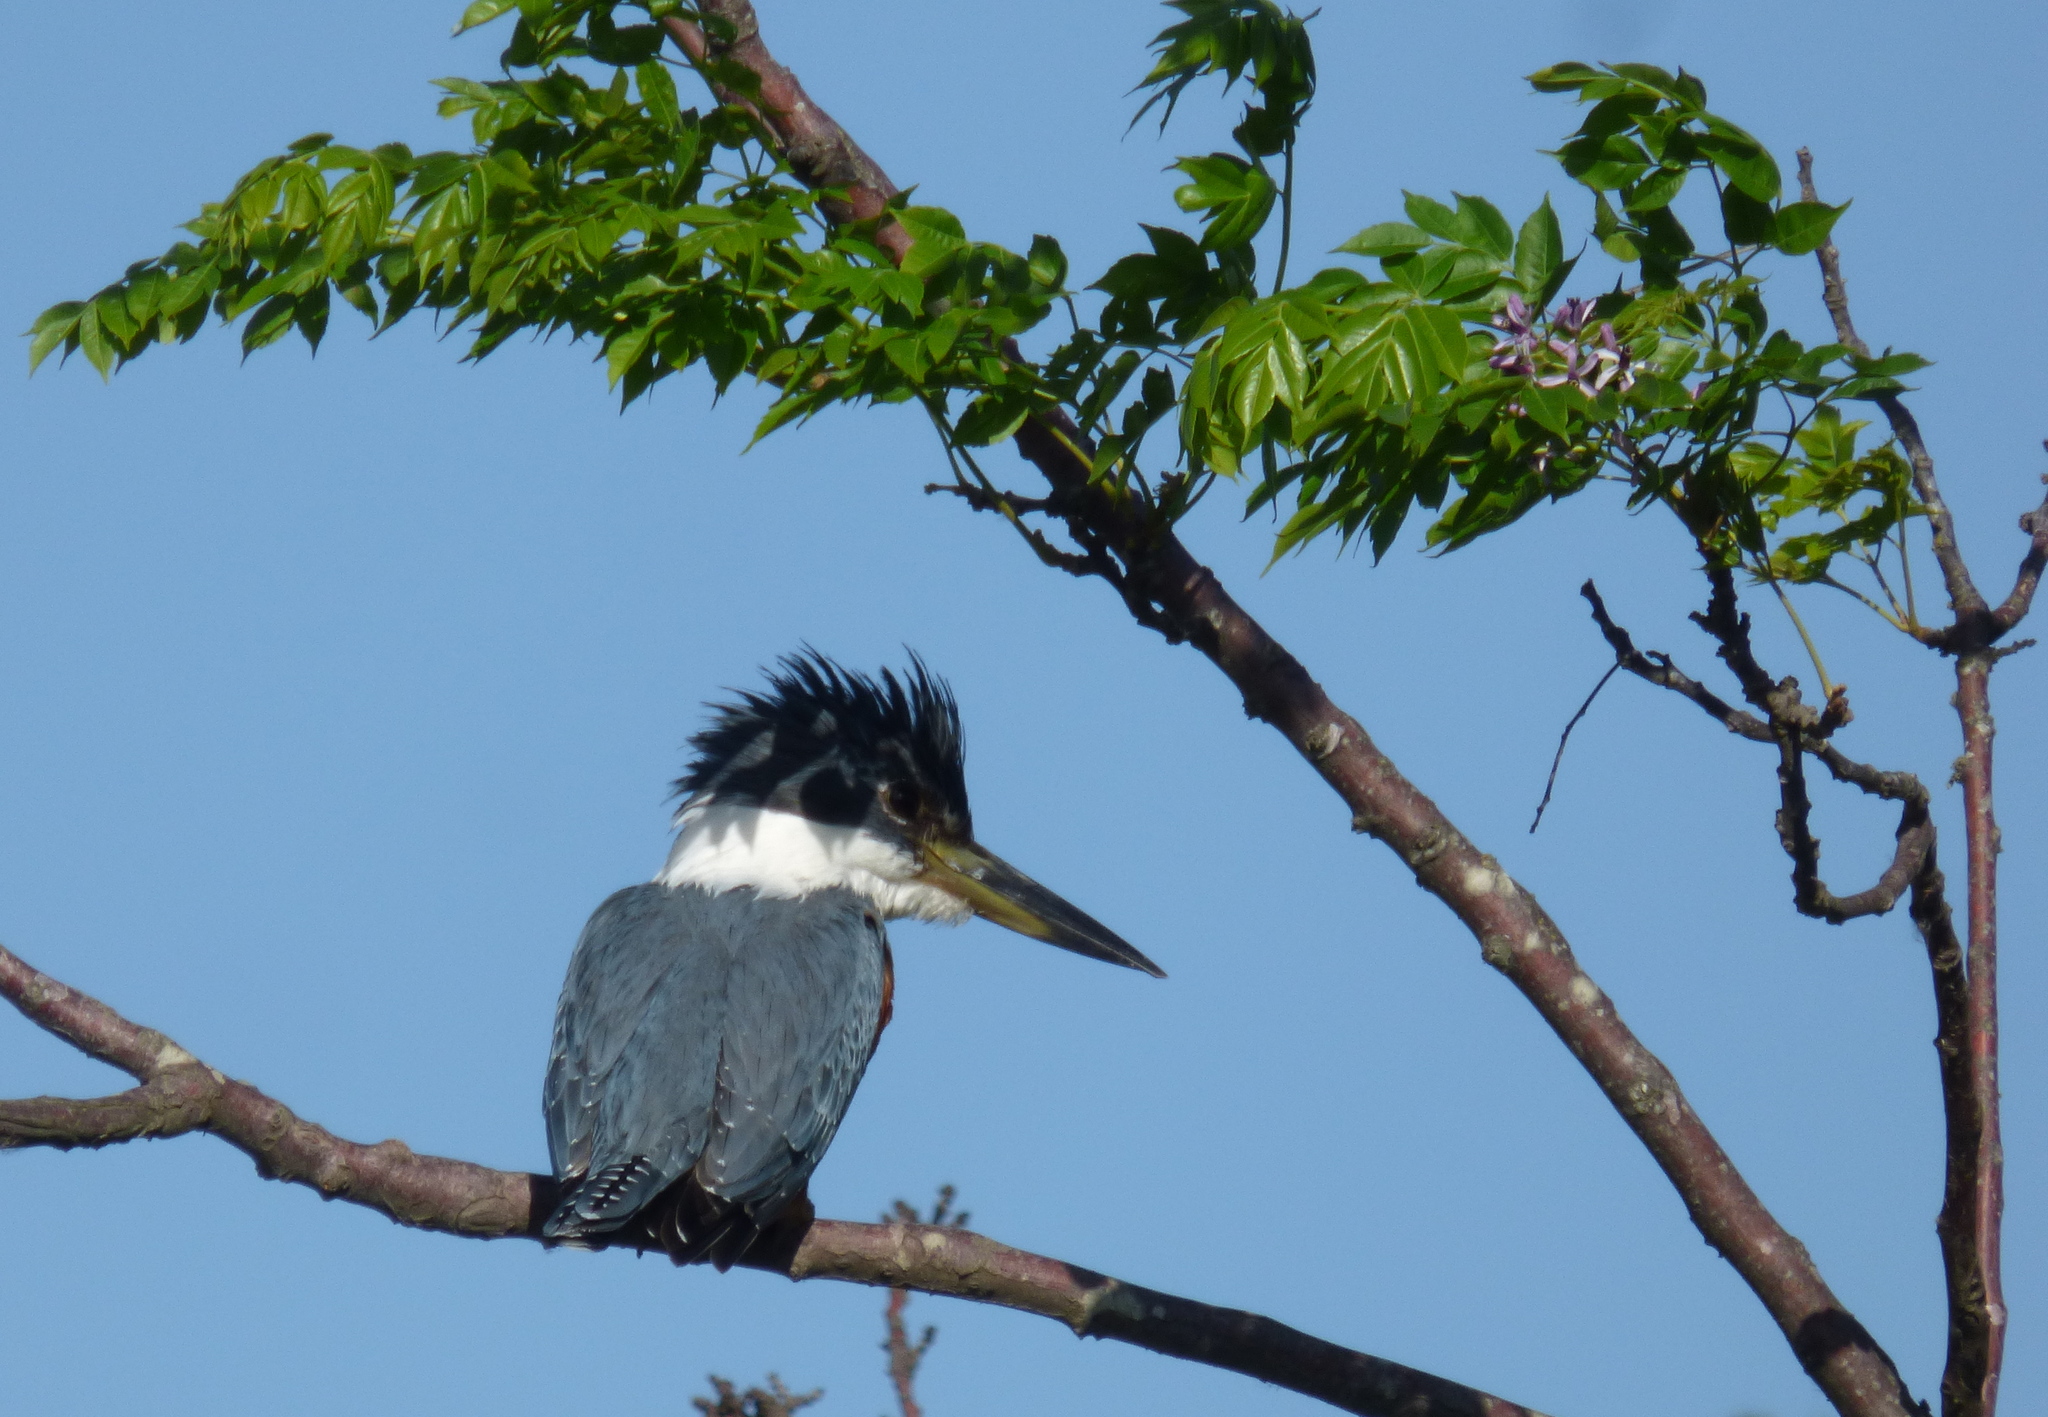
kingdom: Animalia
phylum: Chordata
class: Aves
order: Coraciiformes
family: Alcedinidae
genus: Megaceryle
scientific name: Megaceryle torquata
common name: Ringed kingfisher
